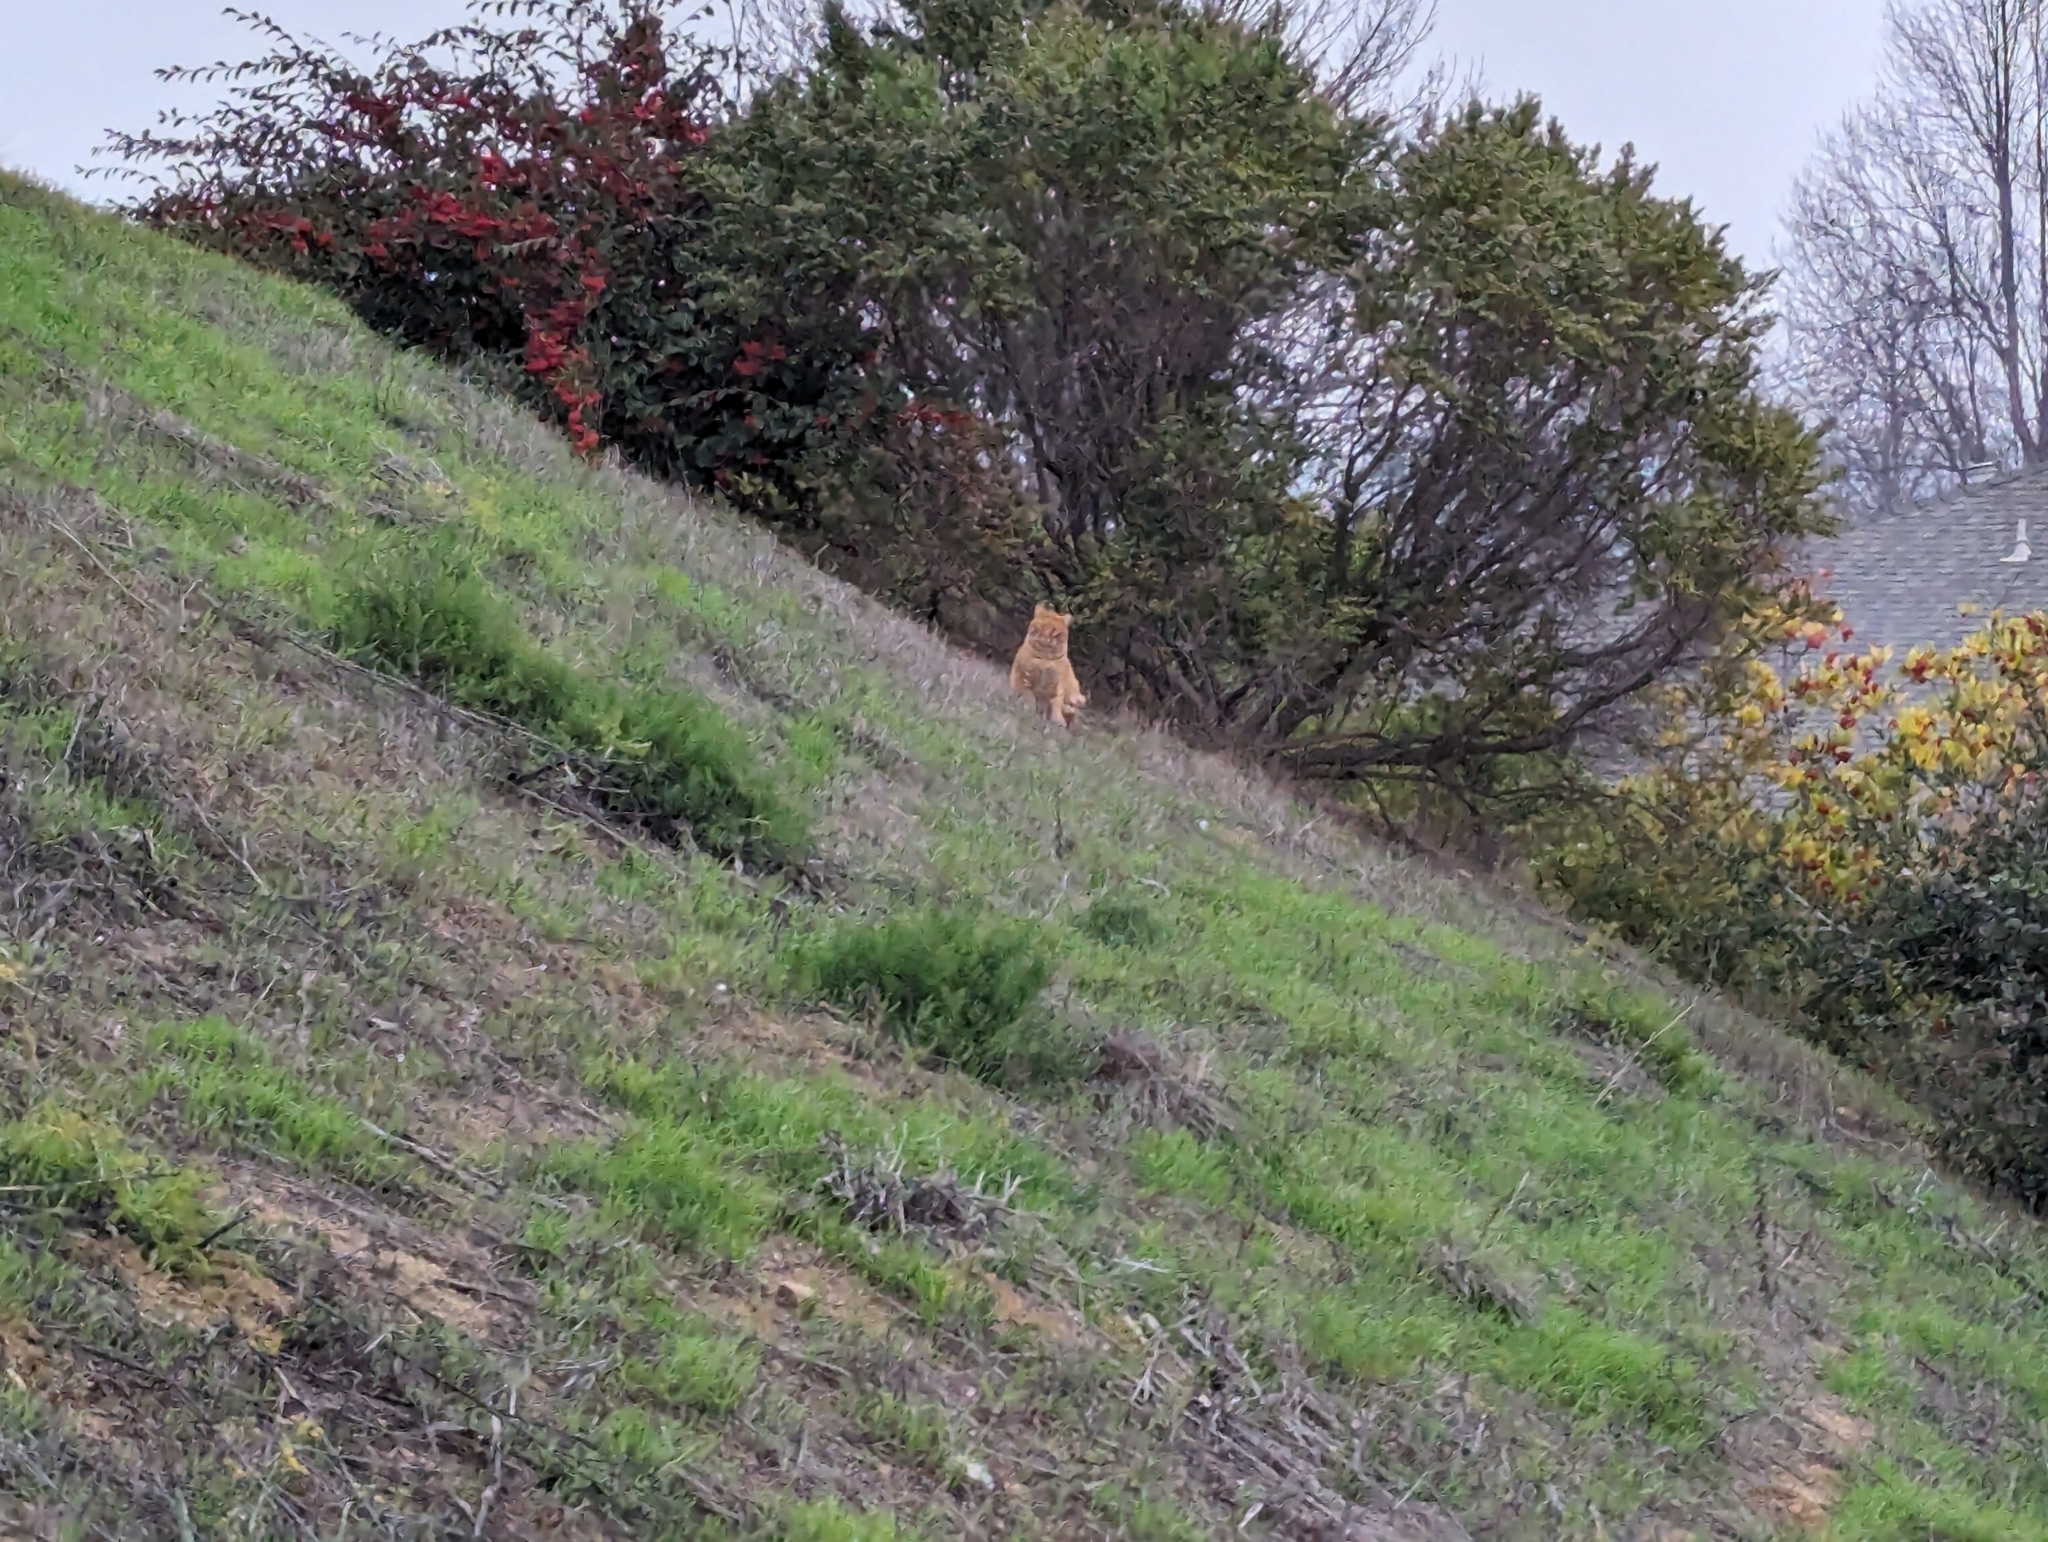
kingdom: Animalia
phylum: Chordata
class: Mammalia
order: Carnivora
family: Felidae
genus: Felis
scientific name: Felis catus
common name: Domestic cat
